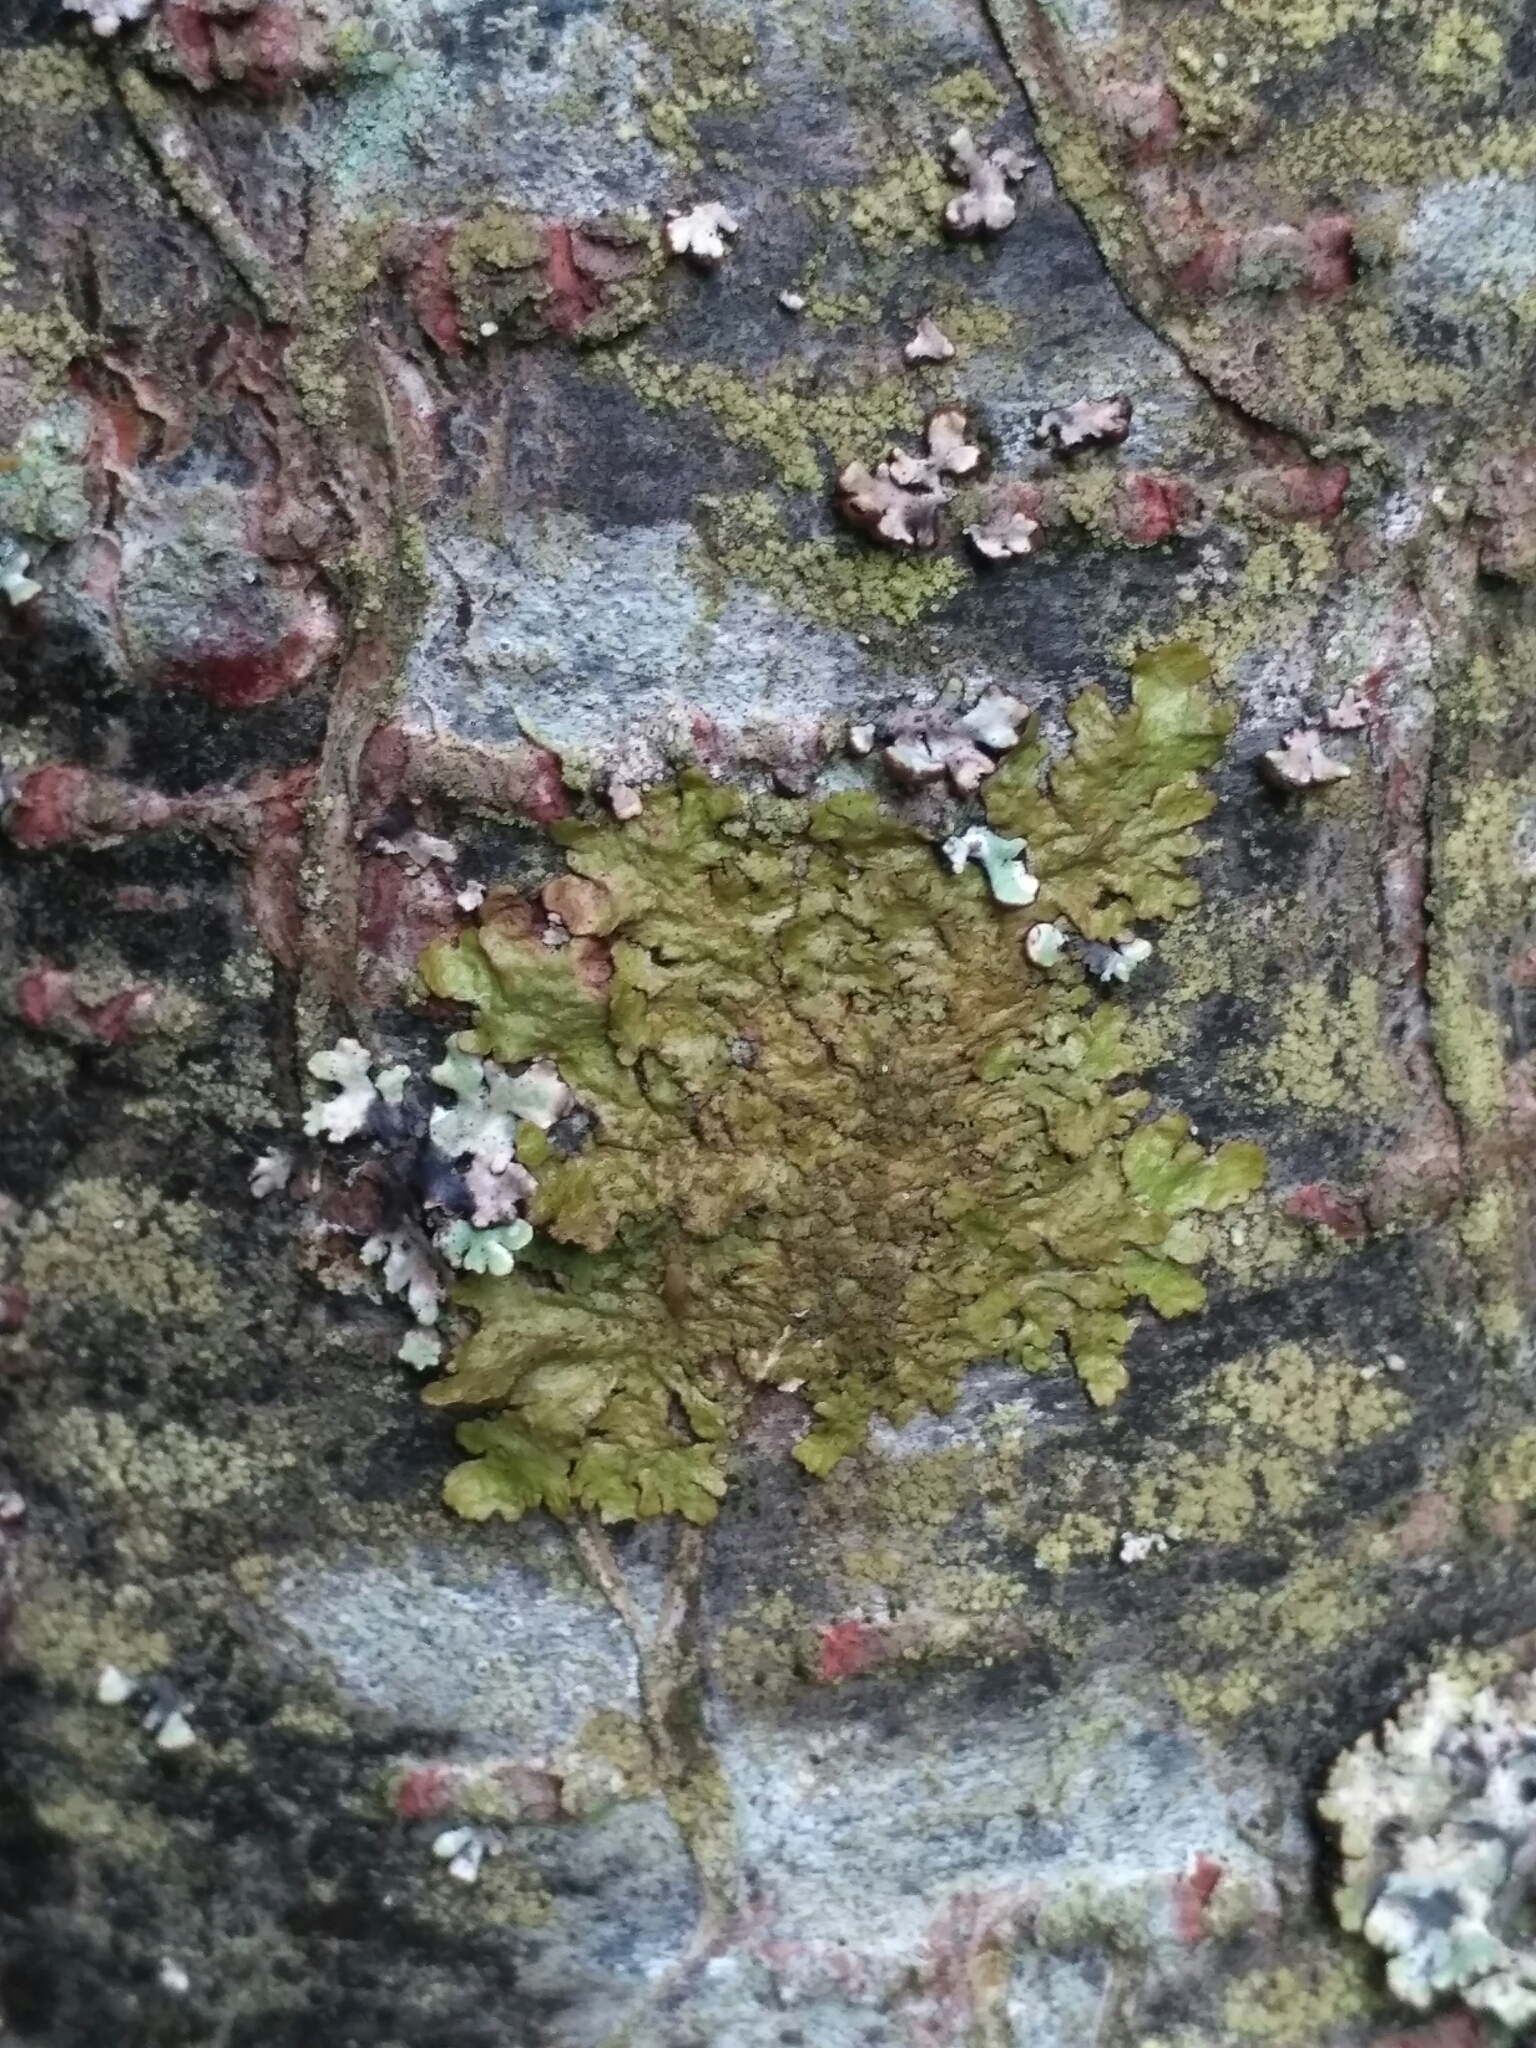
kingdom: Fungi
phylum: Ascomycota
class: Lecanoromycetes
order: Lecanorales
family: Parmeliaceae
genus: Melanelixia
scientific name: Melanelixia glabratula
